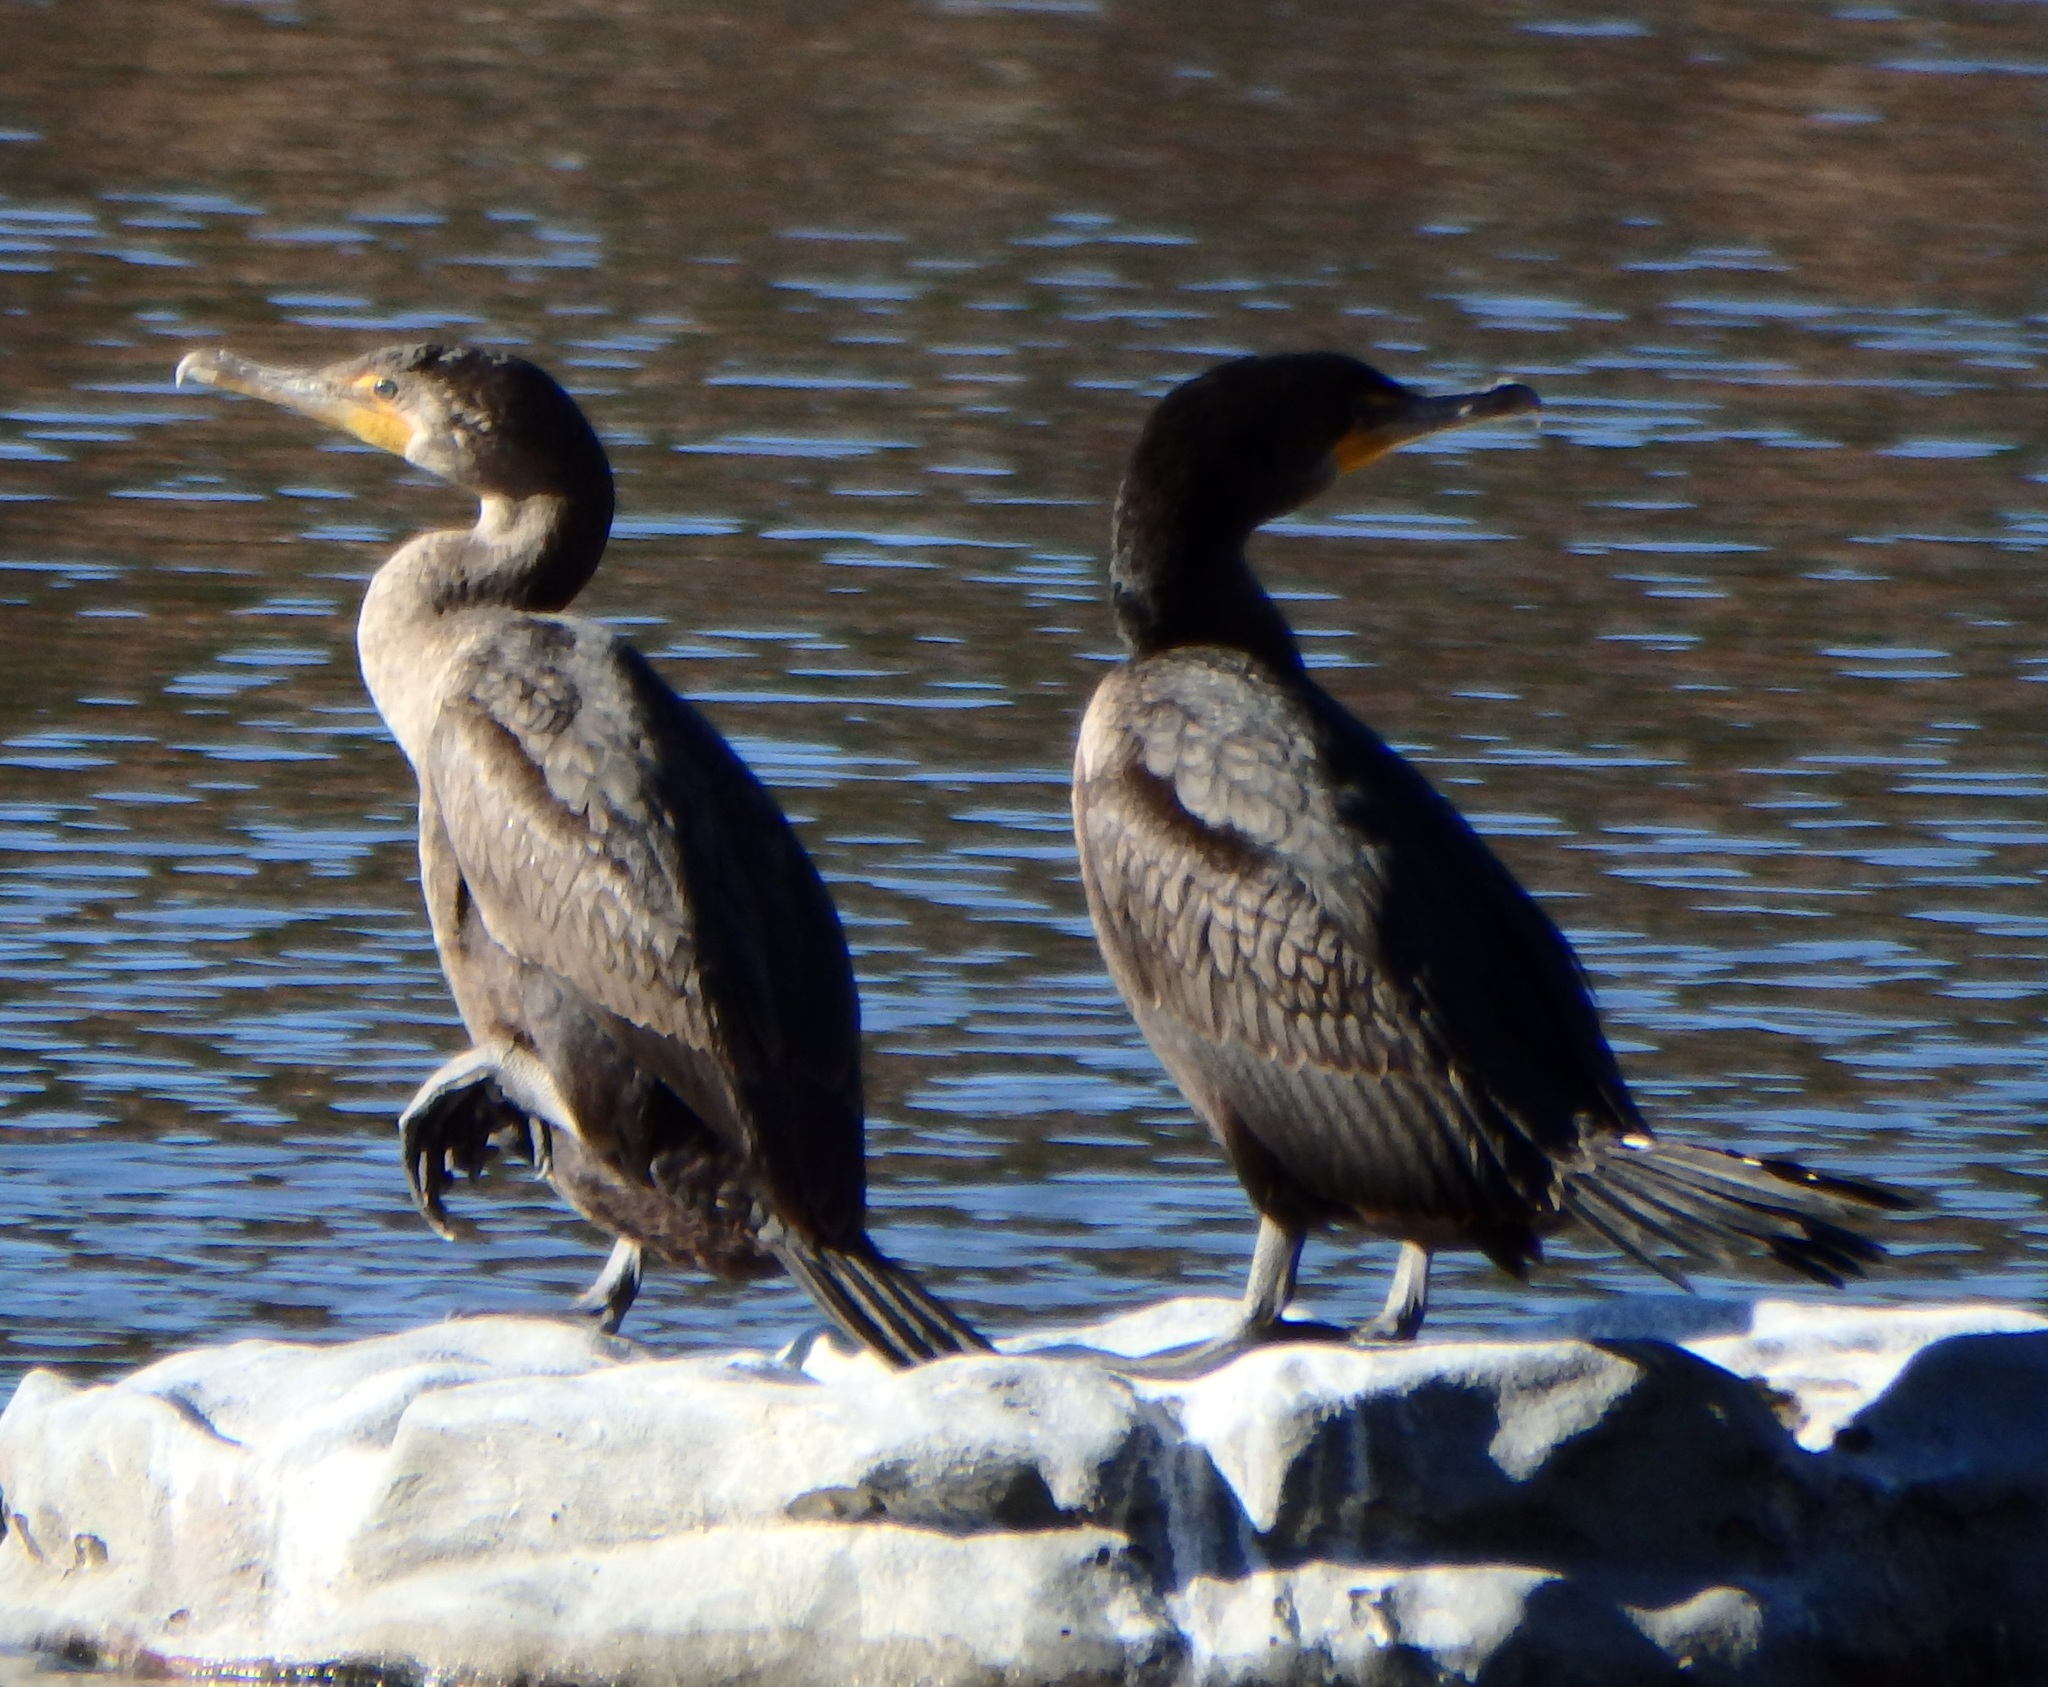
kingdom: Animalia
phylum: Chordata
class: Aves
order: Suliformes
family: Phalacrocoracidae
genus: Phalacrocorax
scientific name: Phalacrocorax auritus
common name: Double-crested cormorant
